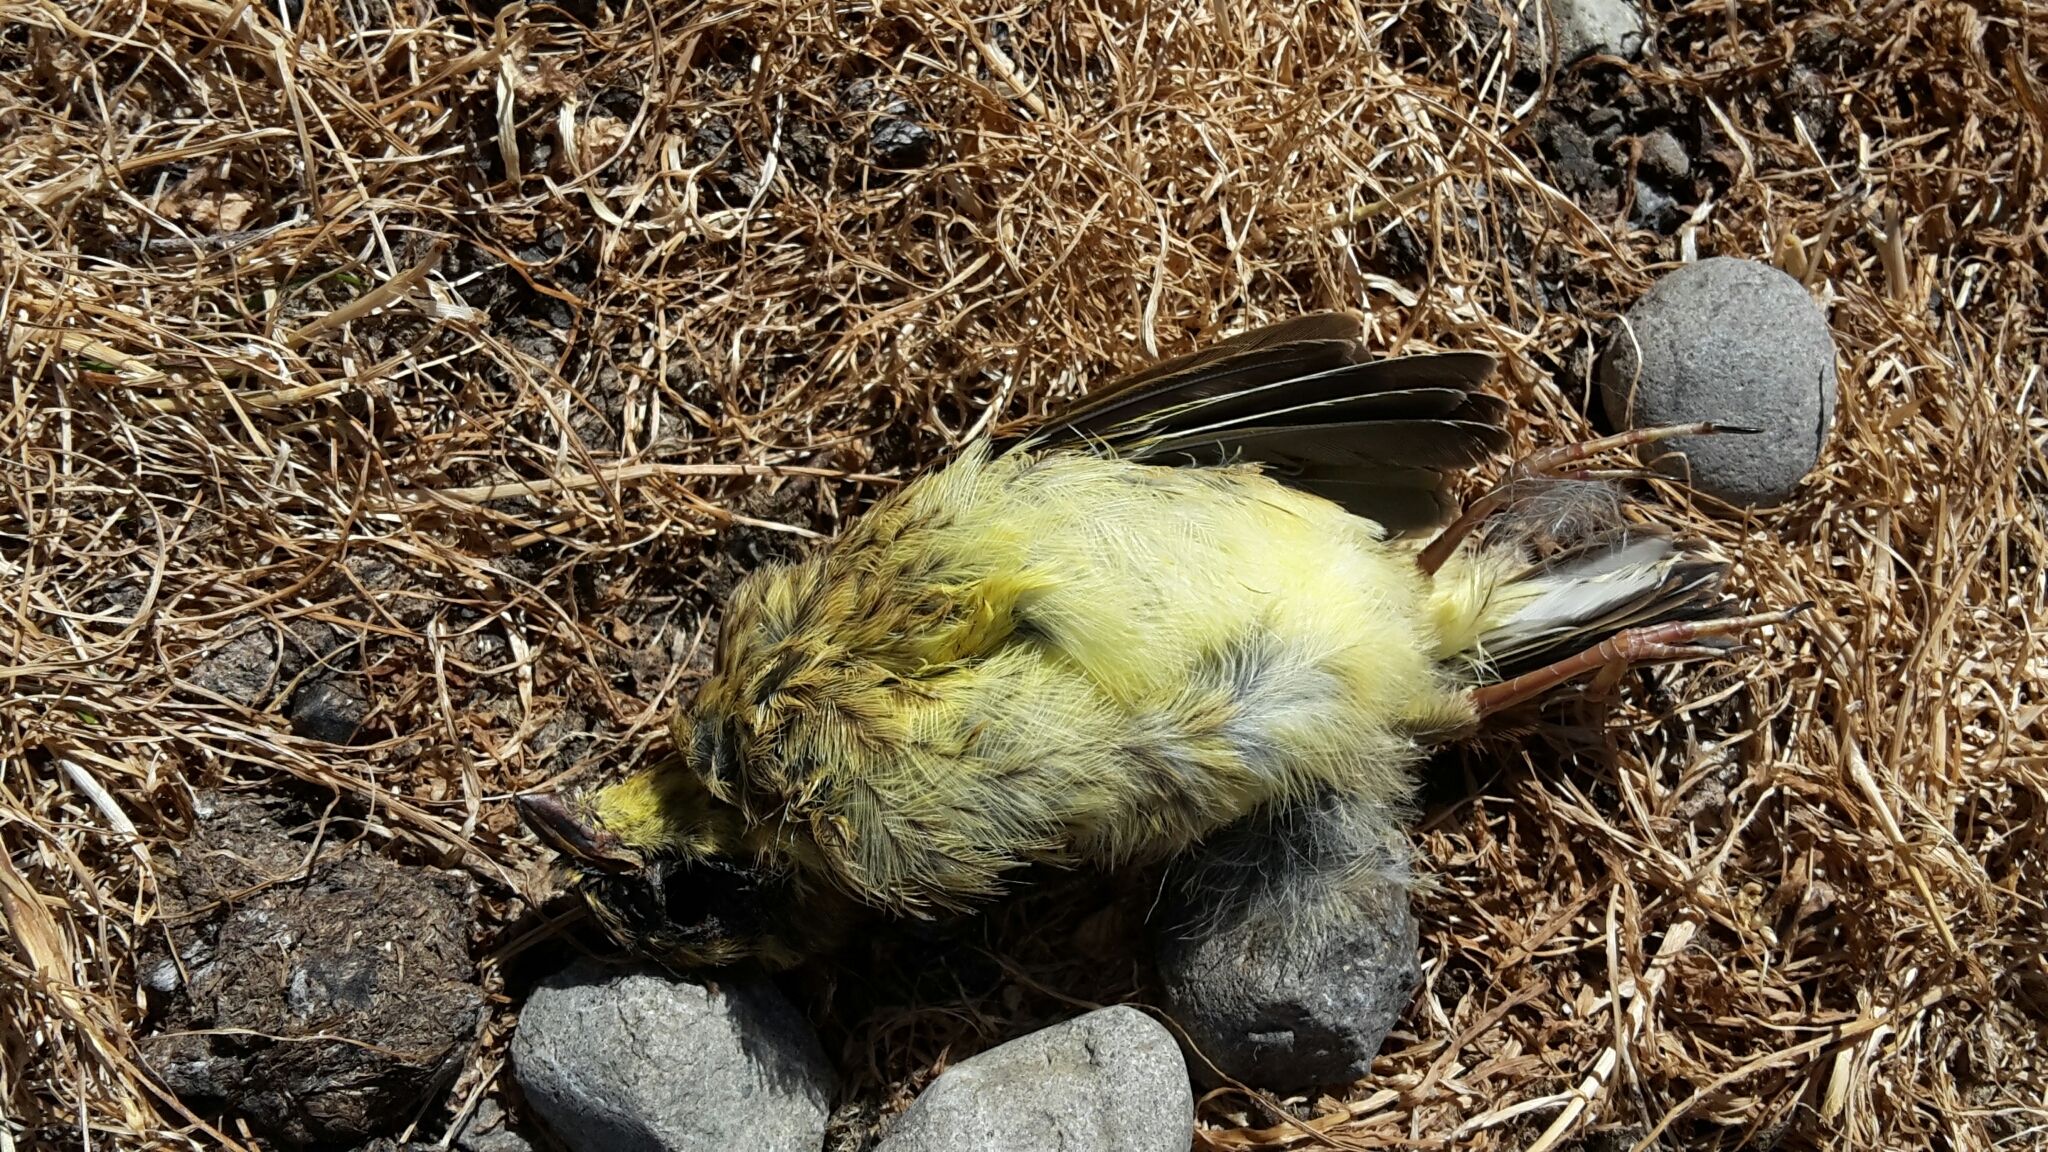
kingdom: Animalia
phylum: Chordata
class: Aves
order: Passeriformes
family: Emberizidae
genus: Emberiza
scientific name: Emberiza citrinella
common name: Yellowhammer
